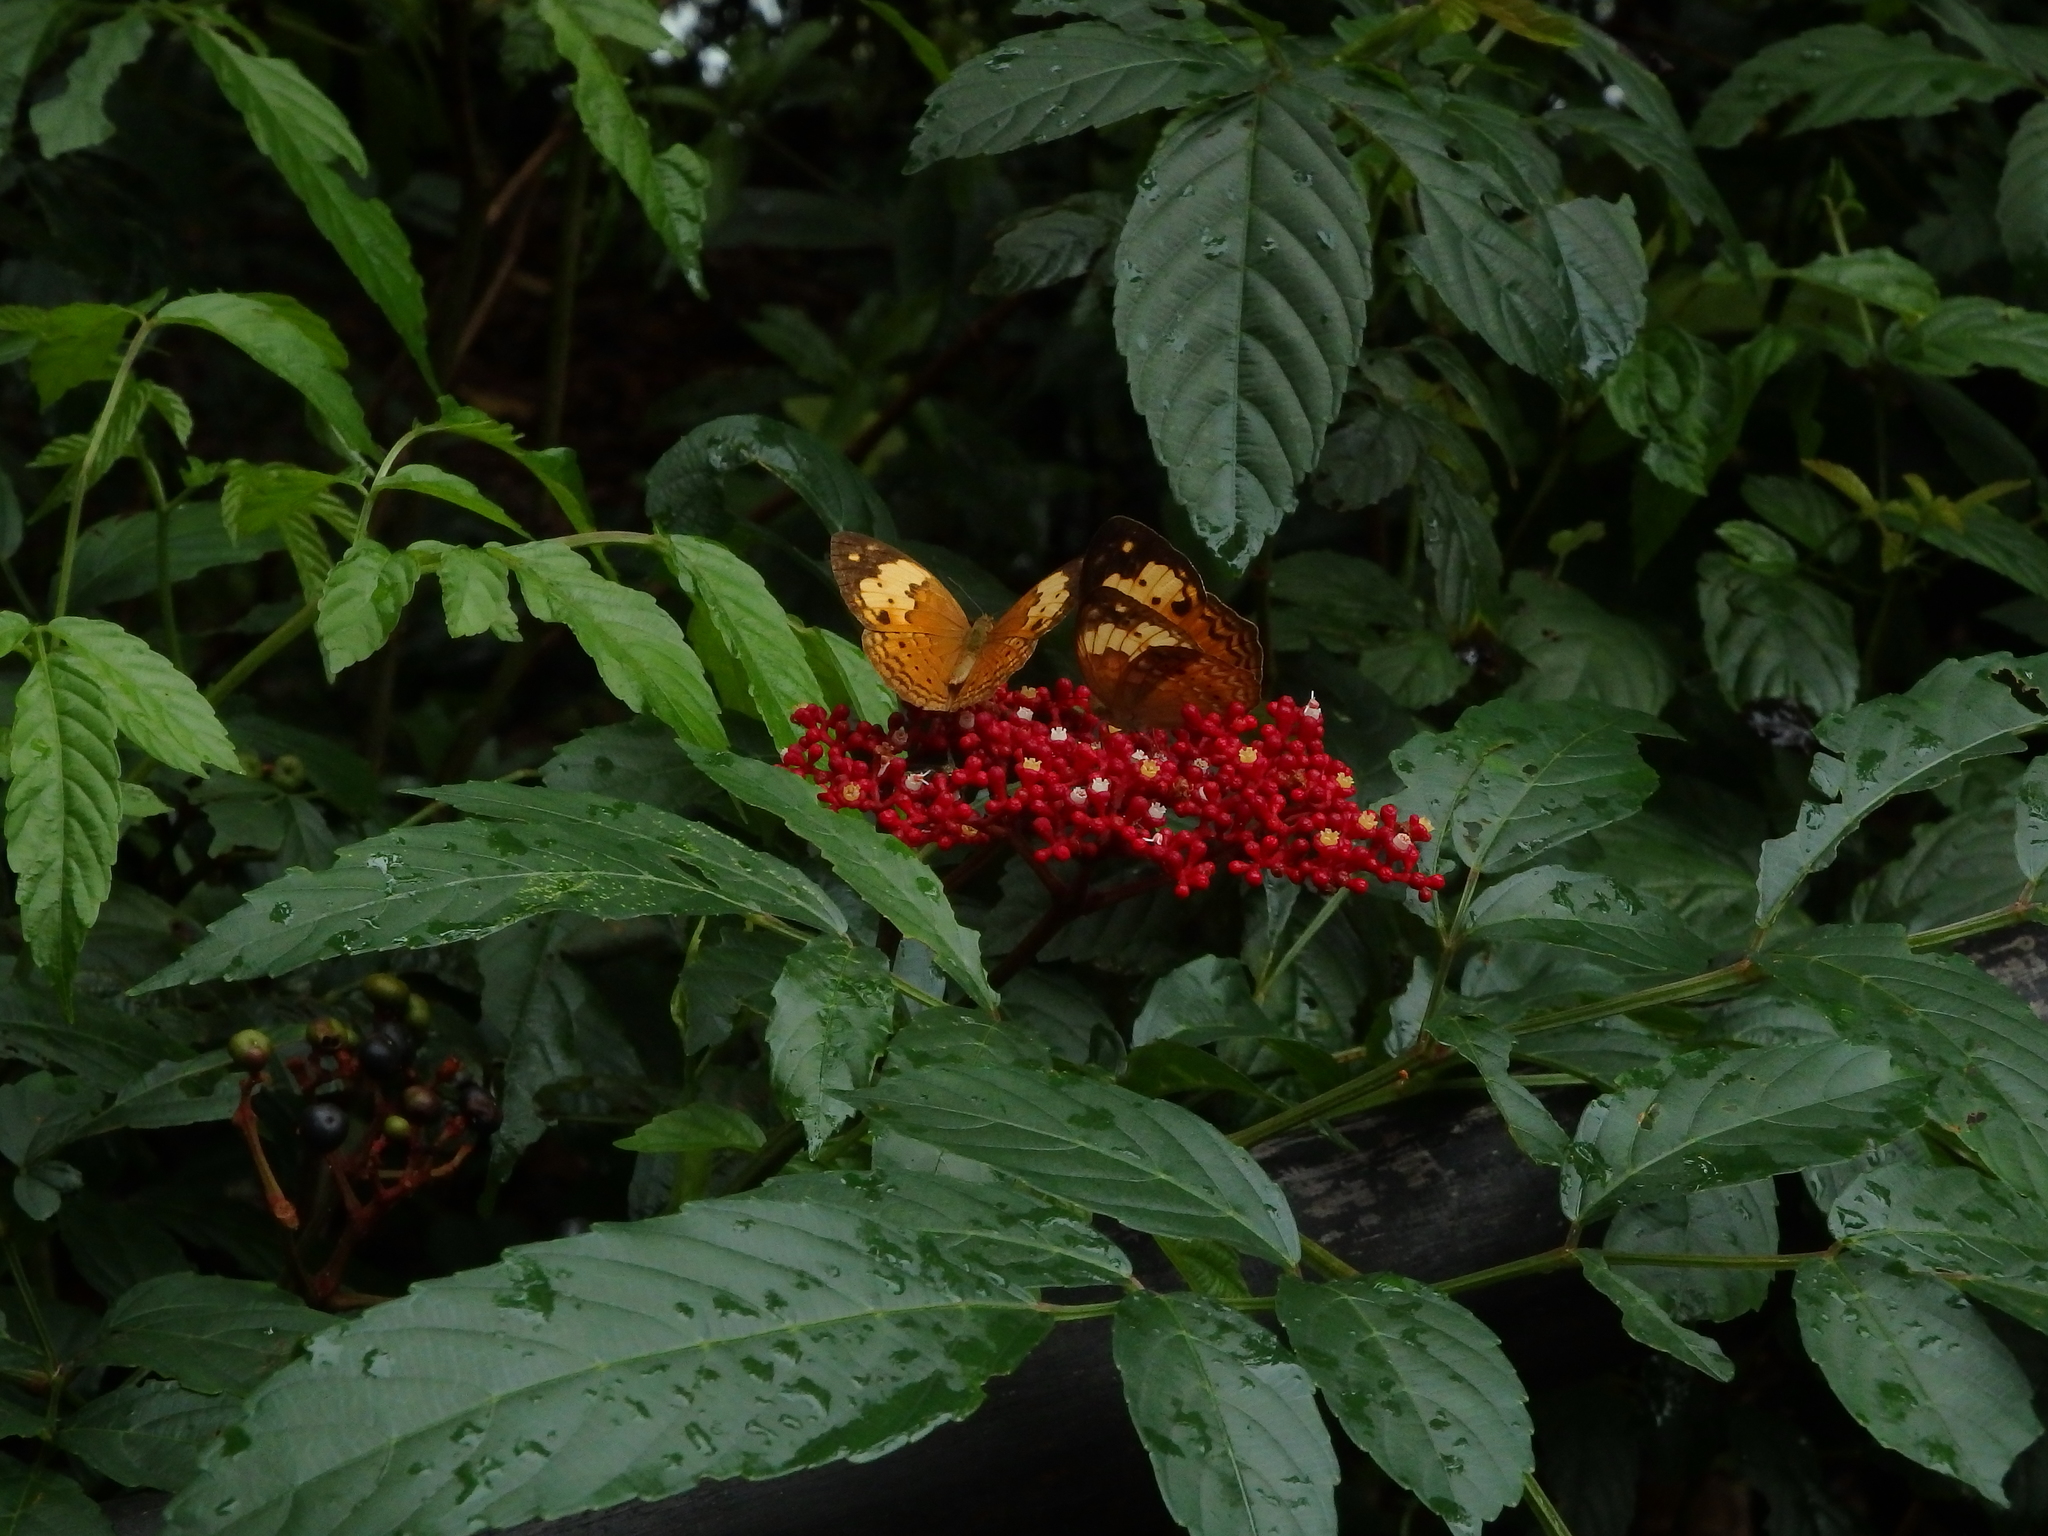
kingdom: Animalia
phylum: Arthropoda
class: Insecta
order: Lepidoptera
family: Nymphalidae
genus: Cupha
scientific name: Cupha erymanthis
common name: Rustic
